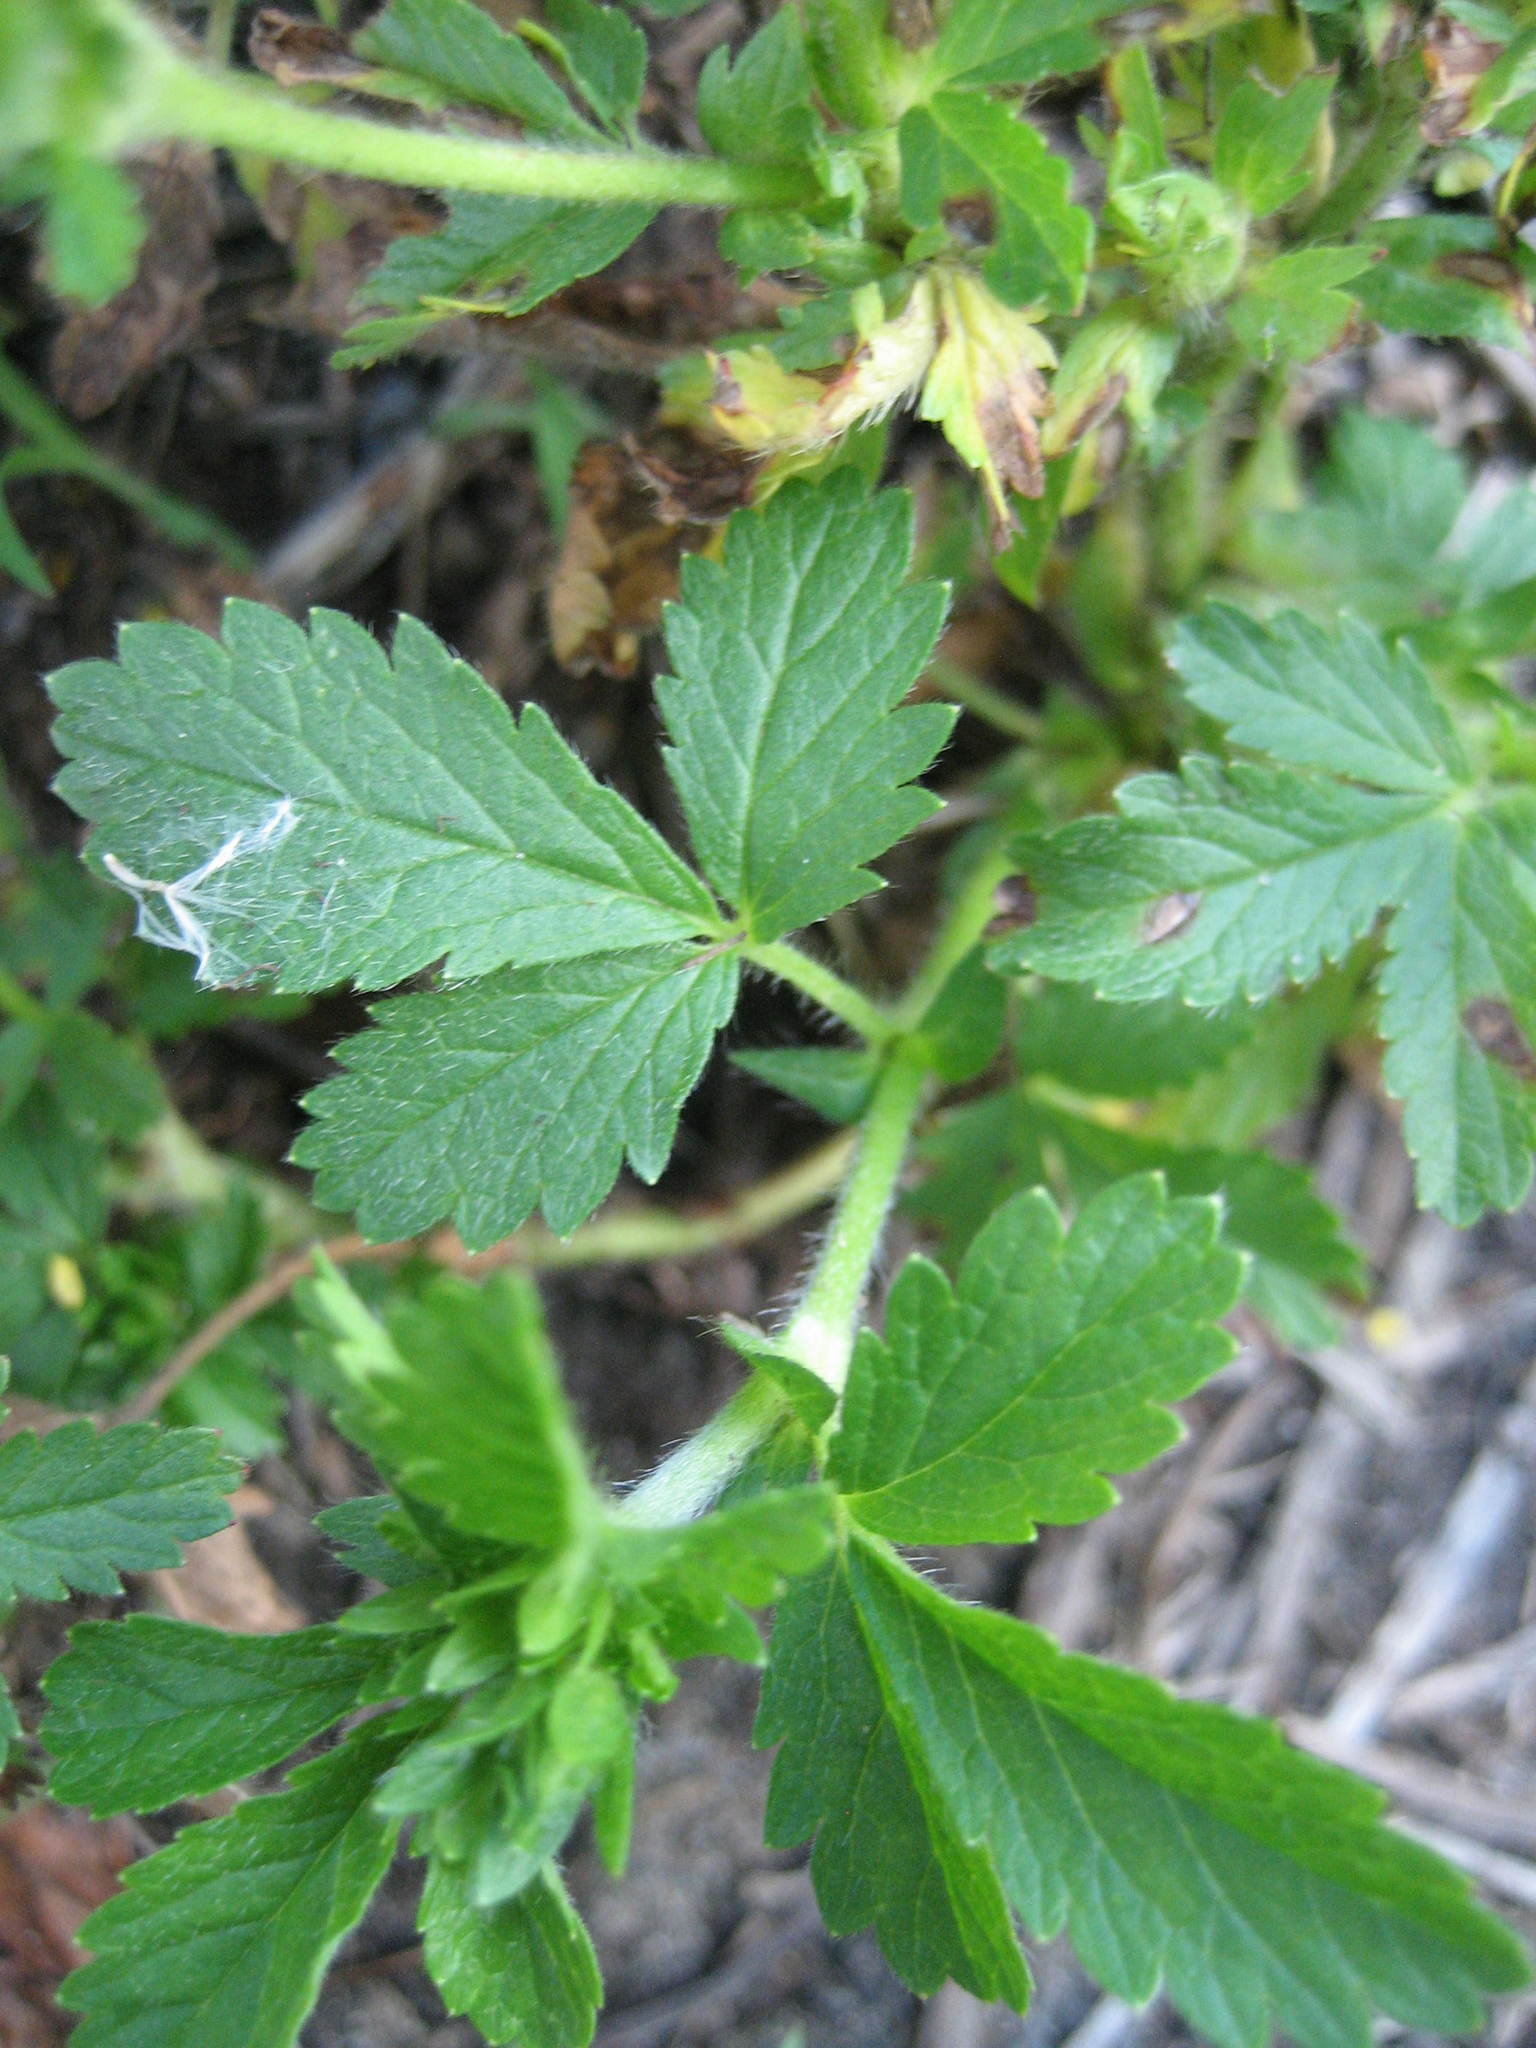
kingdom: Plantae
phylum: Tracheophyta
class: Magnoliopsida
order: Rosales
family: Rosaceae
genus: Potentilla
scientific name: Potentilla norvegica
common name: Ternate-leaved cinquefoil
